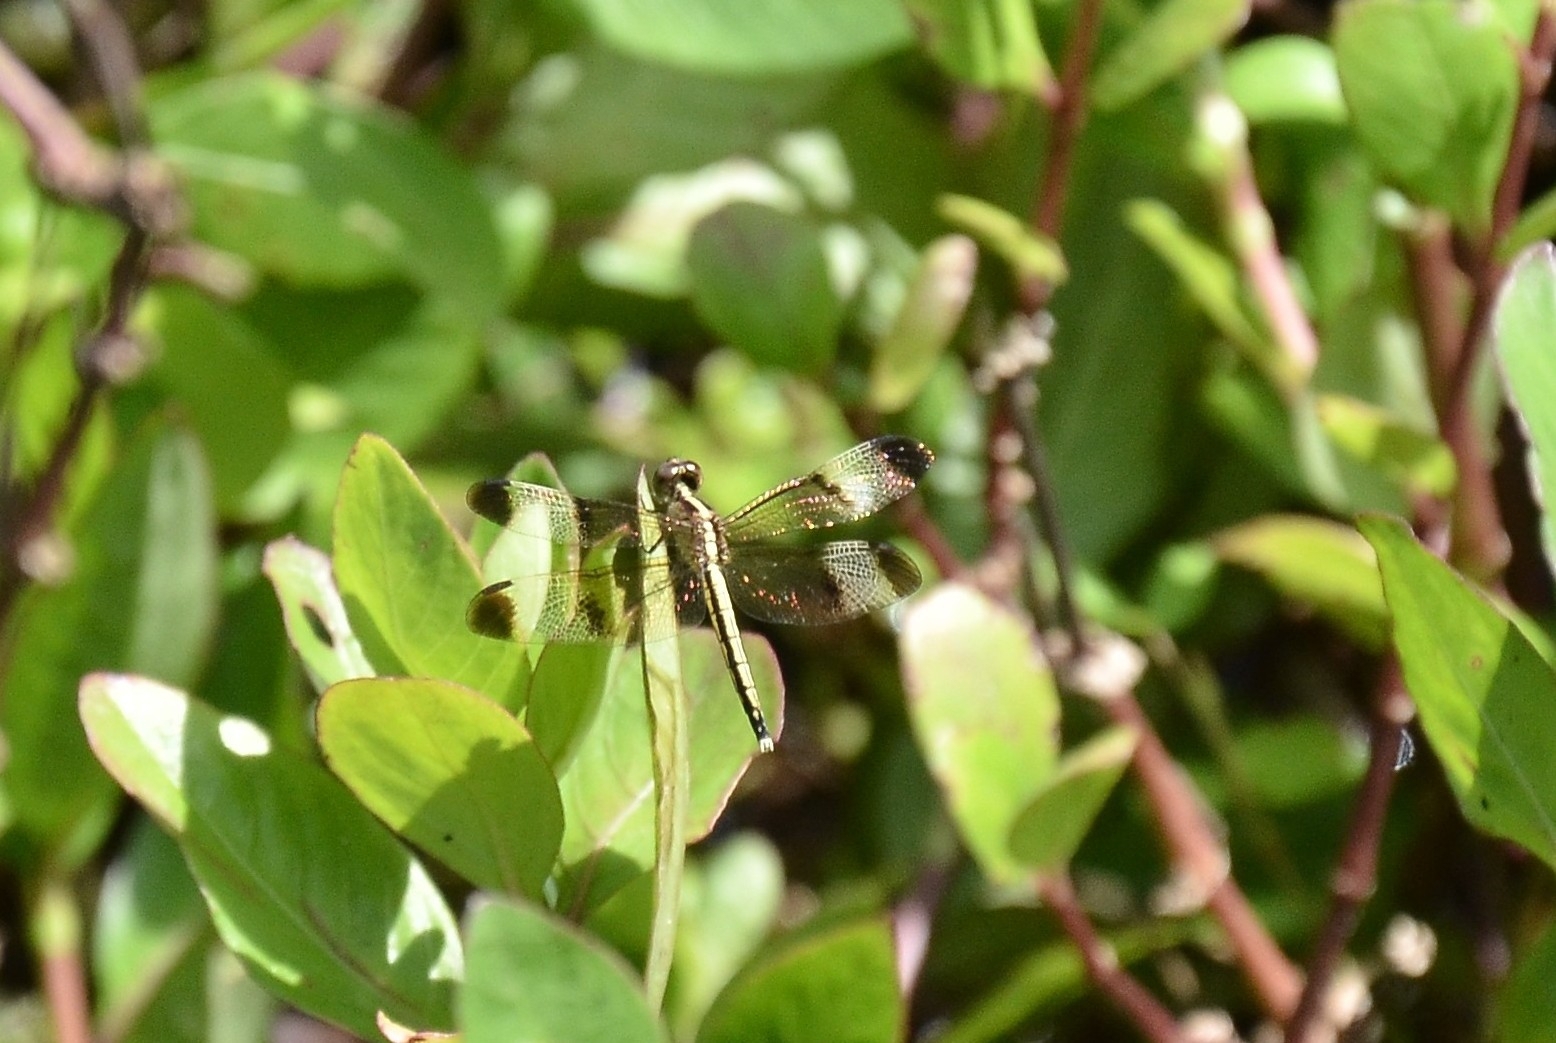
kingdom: Animalia
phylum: Arthropoda
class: Insecta
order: Odonata
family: Libellulidae
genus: Neurothemis
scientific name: Neurothemis tullia
